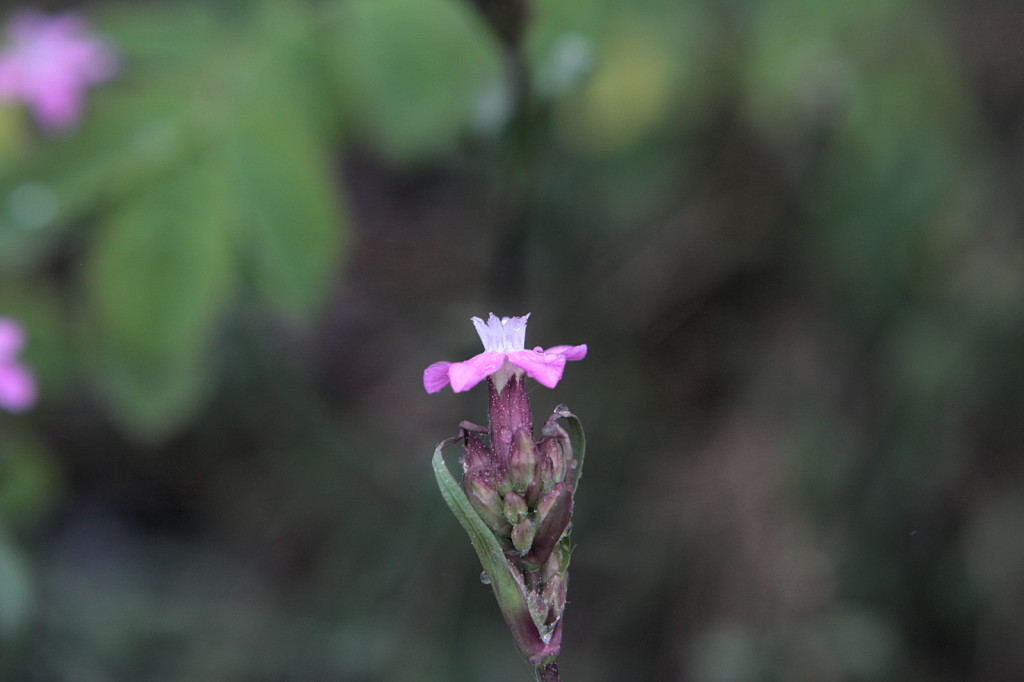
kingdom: Plantae
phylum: Tracheophyta
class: Magnoliopsida
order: Caryophyllales
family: Caryophyllaceae
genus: Viscaria
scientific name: Viscaria vulgaris
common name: Clammy campion
